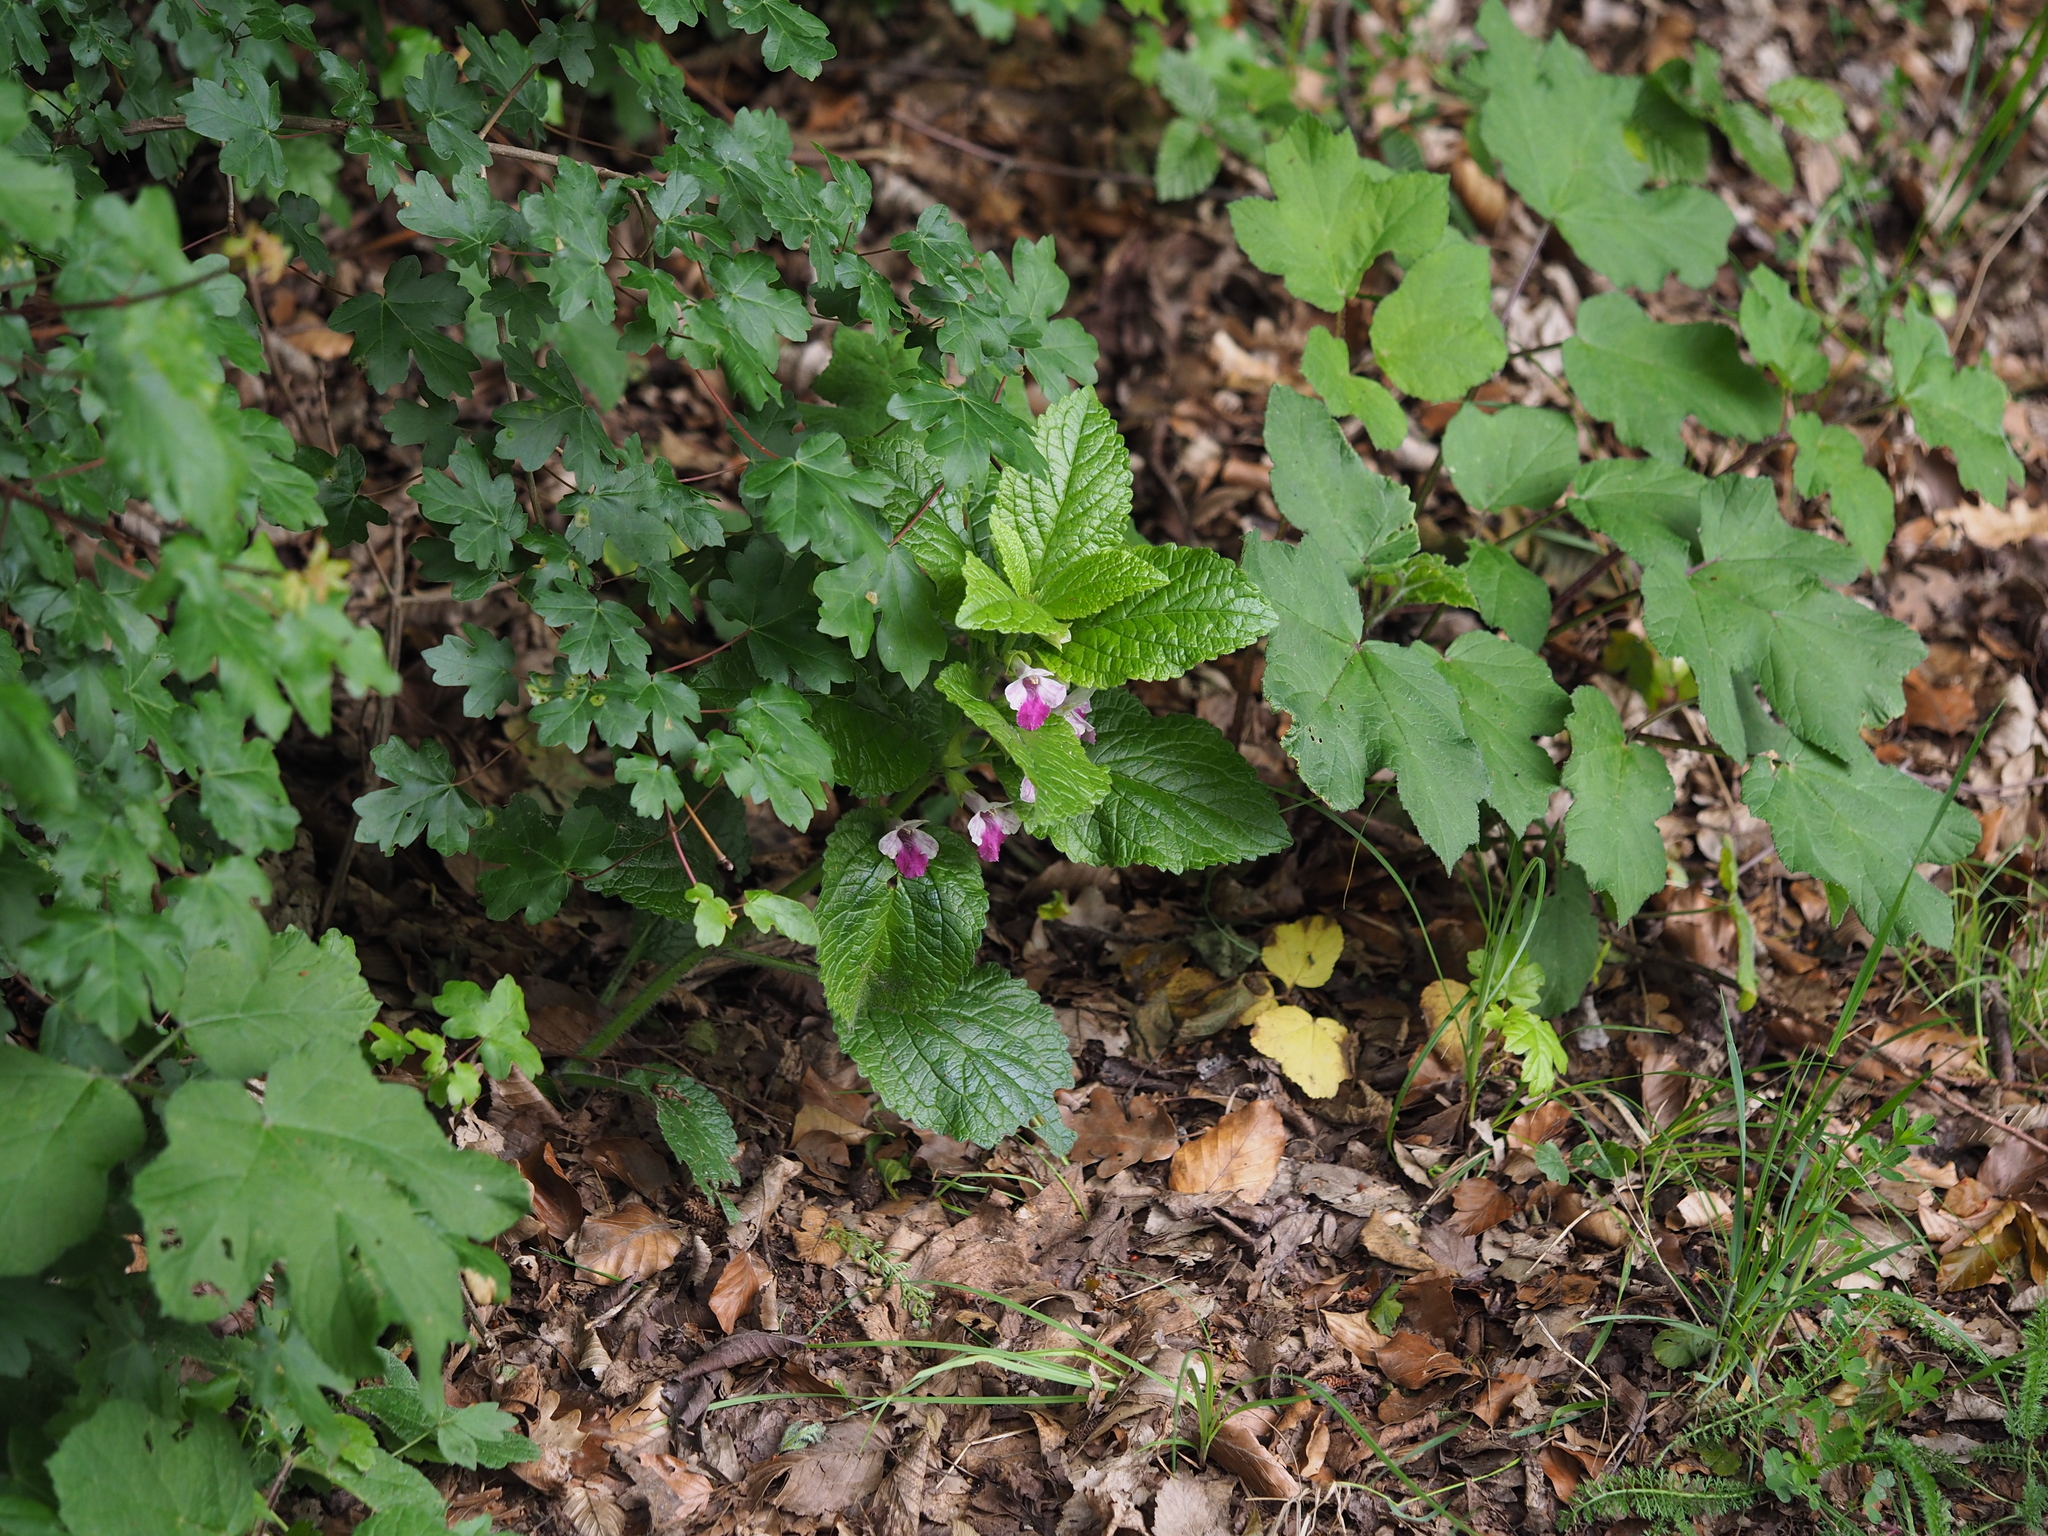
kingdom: Plantae
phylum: Tracheophyta
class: Magnoliopsida
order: Lamiales
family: Lamiaceae
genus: Melittis
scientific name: Melittis melissophyllum
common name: Bastard balm
